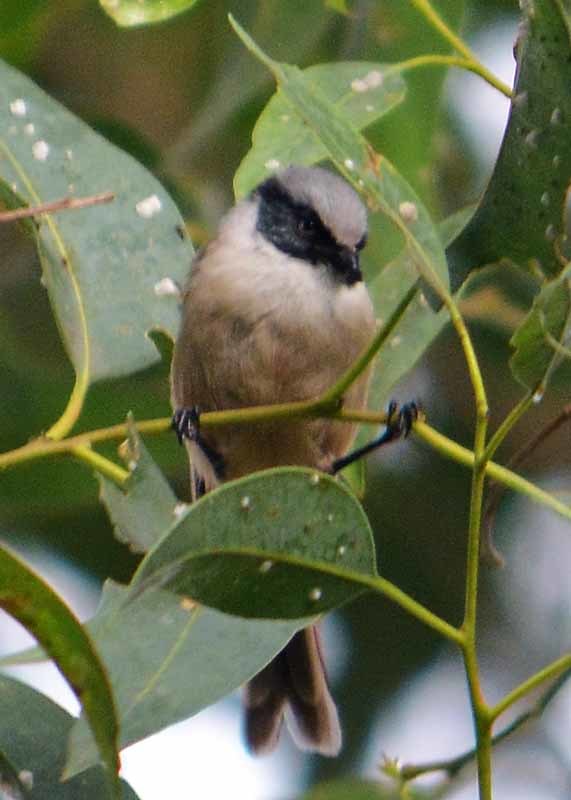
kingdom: Animalia
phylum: Chordata
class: Aves
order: Passeriformes
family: Aegithalidae
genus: Psaltriparus
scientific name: Psaltriparus minimus
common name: American bushtit
